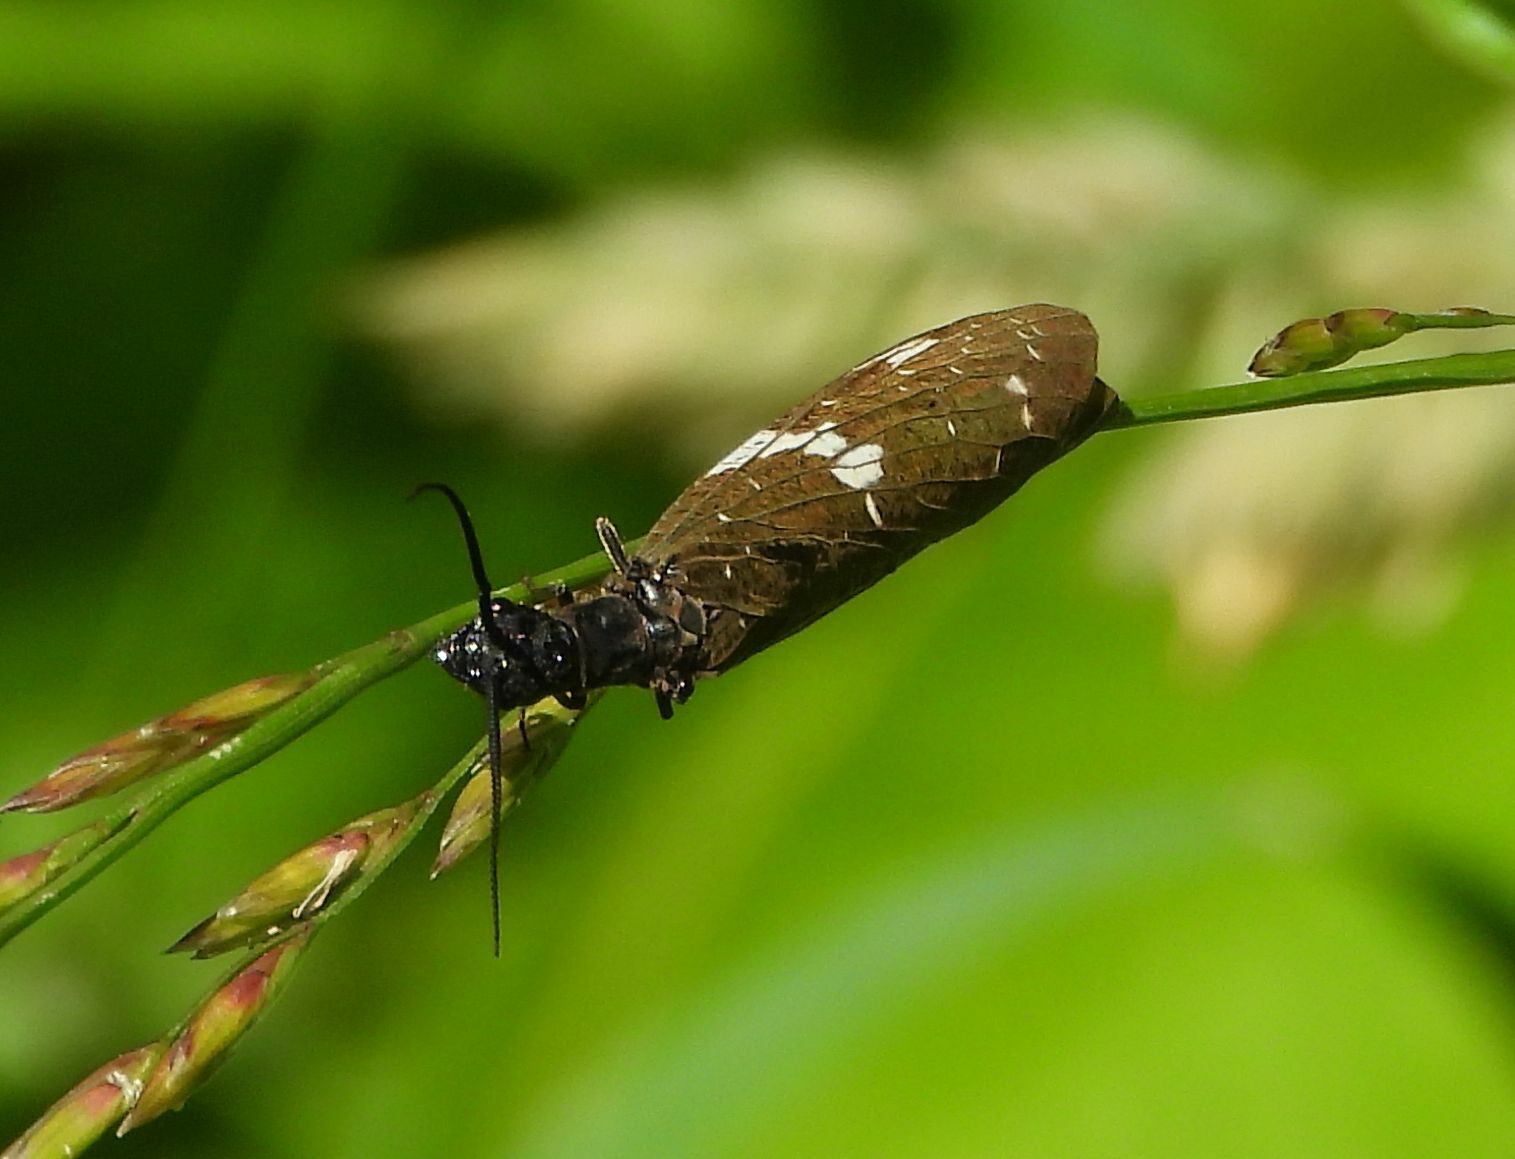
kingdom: Animalia
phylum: Arthropoda
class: Insecta
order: Megaloptera
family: Corydalidae
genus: Nigronia
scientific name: Nigronia serricornis
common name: Serrate dark fishfly
